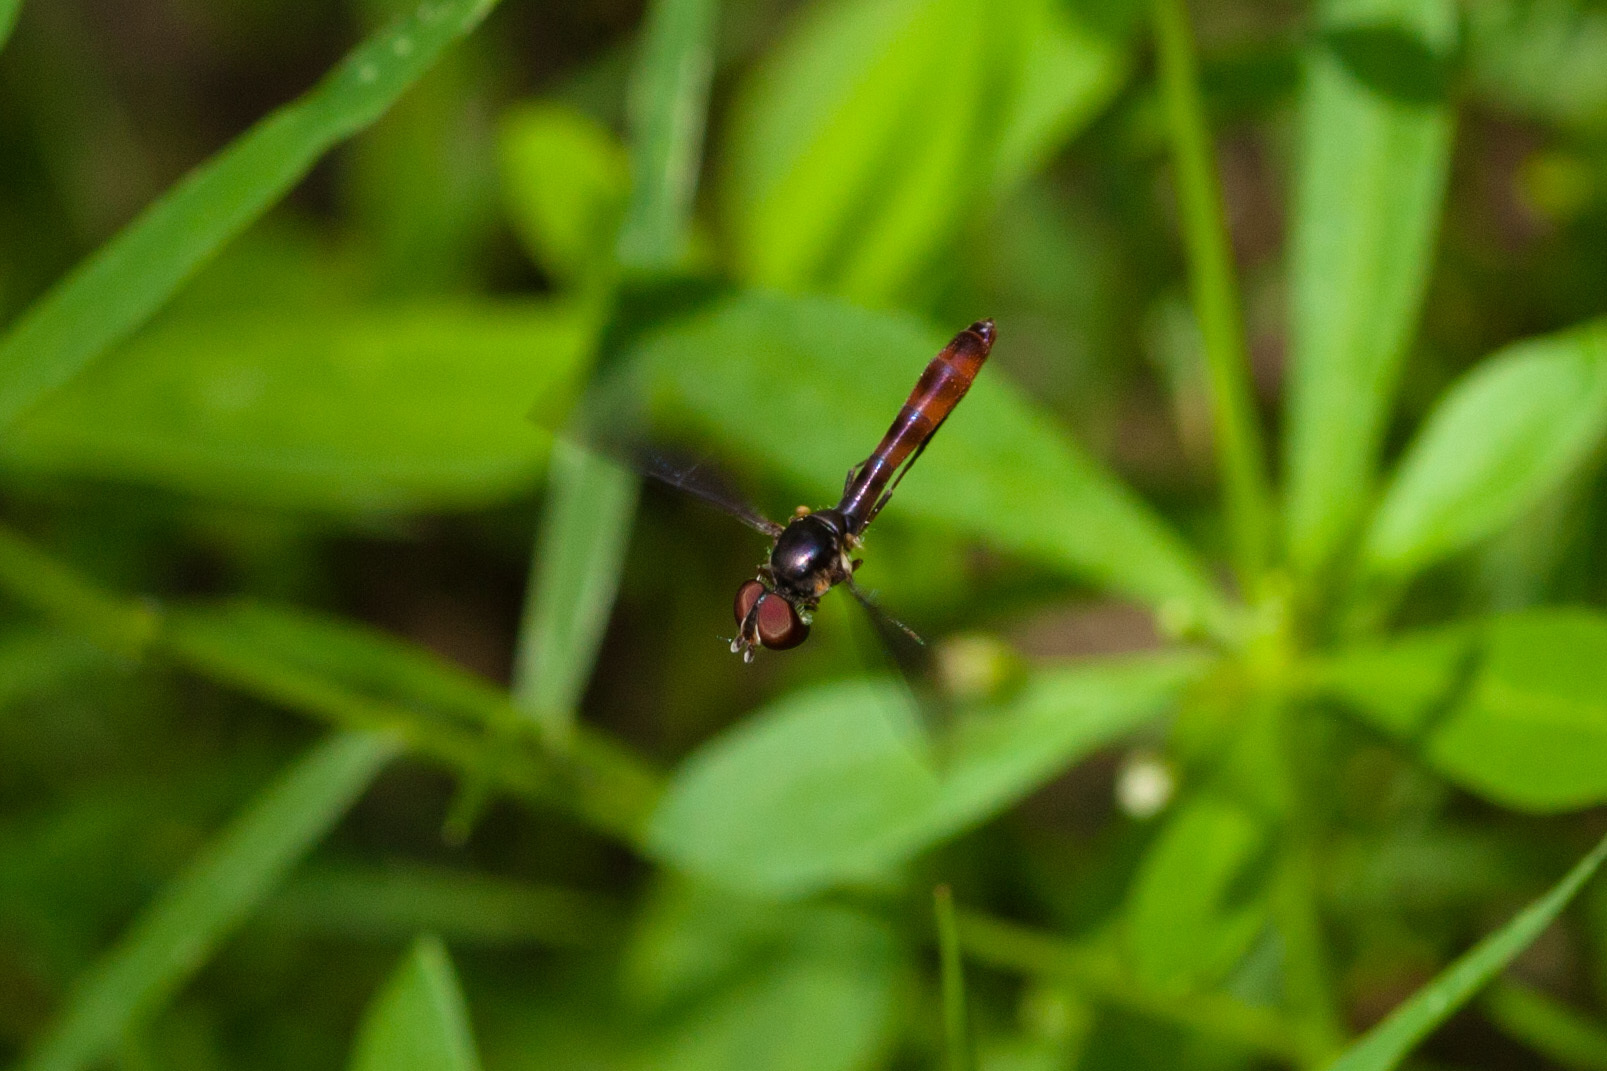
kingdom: Animalia
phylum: Arthropoda
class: Insecta
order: Diptera
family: Syrphidae
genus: Ocyptamus
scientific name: Ocyptamus fuscipennis
